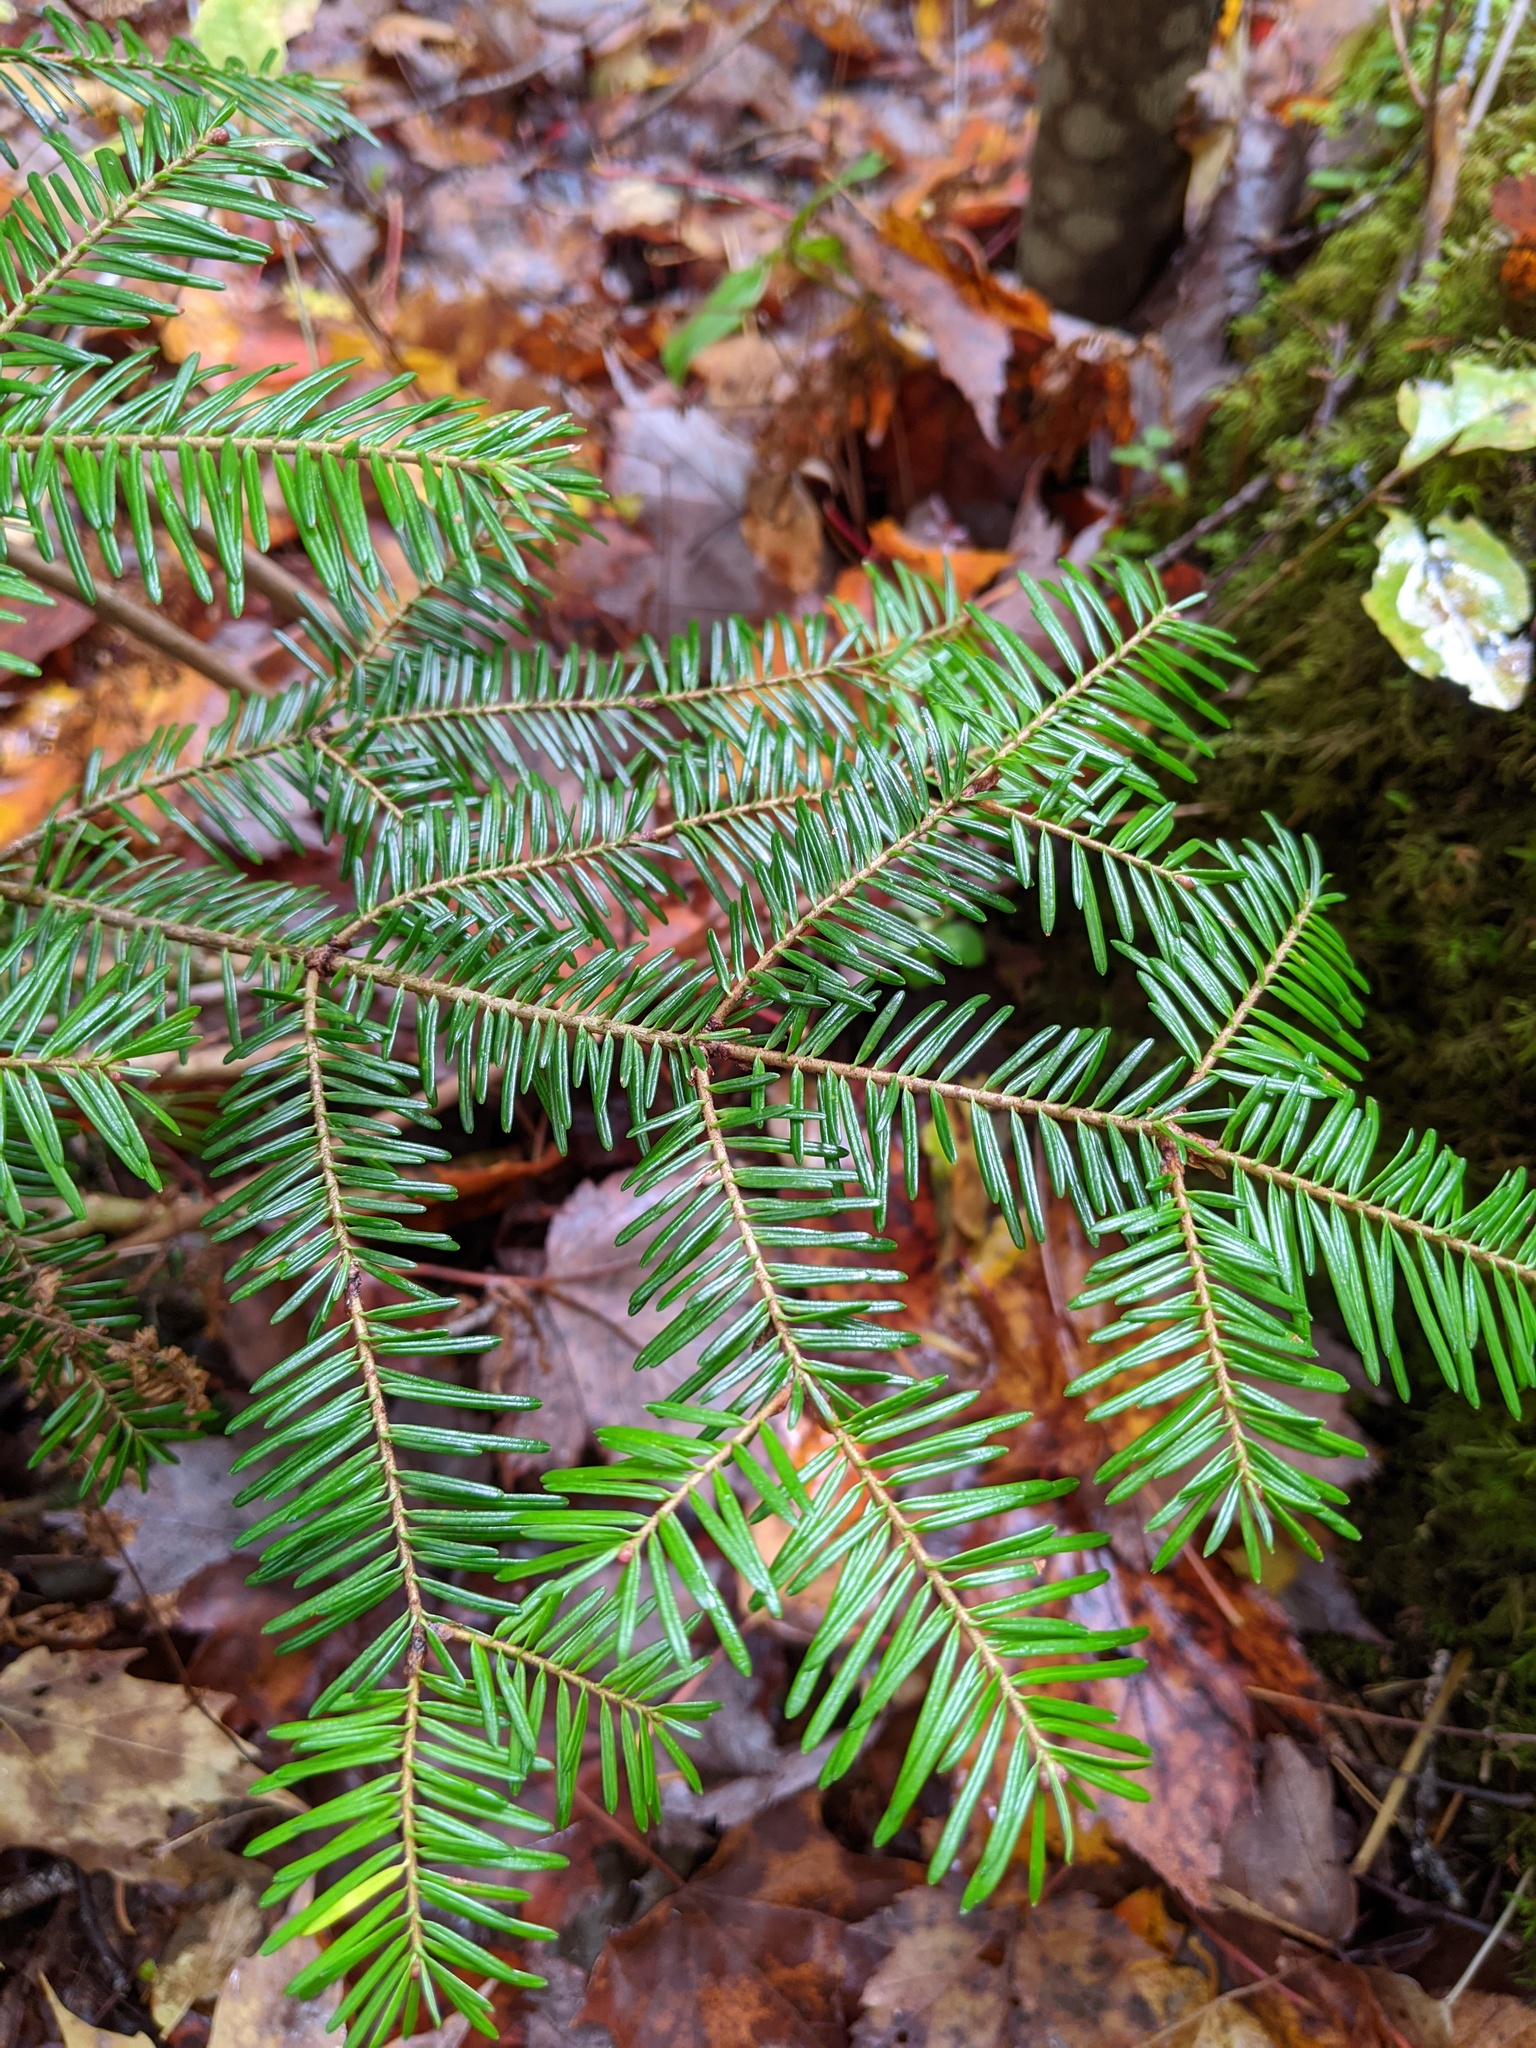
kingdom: Plantae
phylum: Tracheophyta
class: Pinopsida
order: Pinales
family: Pinaceae
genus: Abies
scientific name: Abies balsamea
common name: Balsam fir
